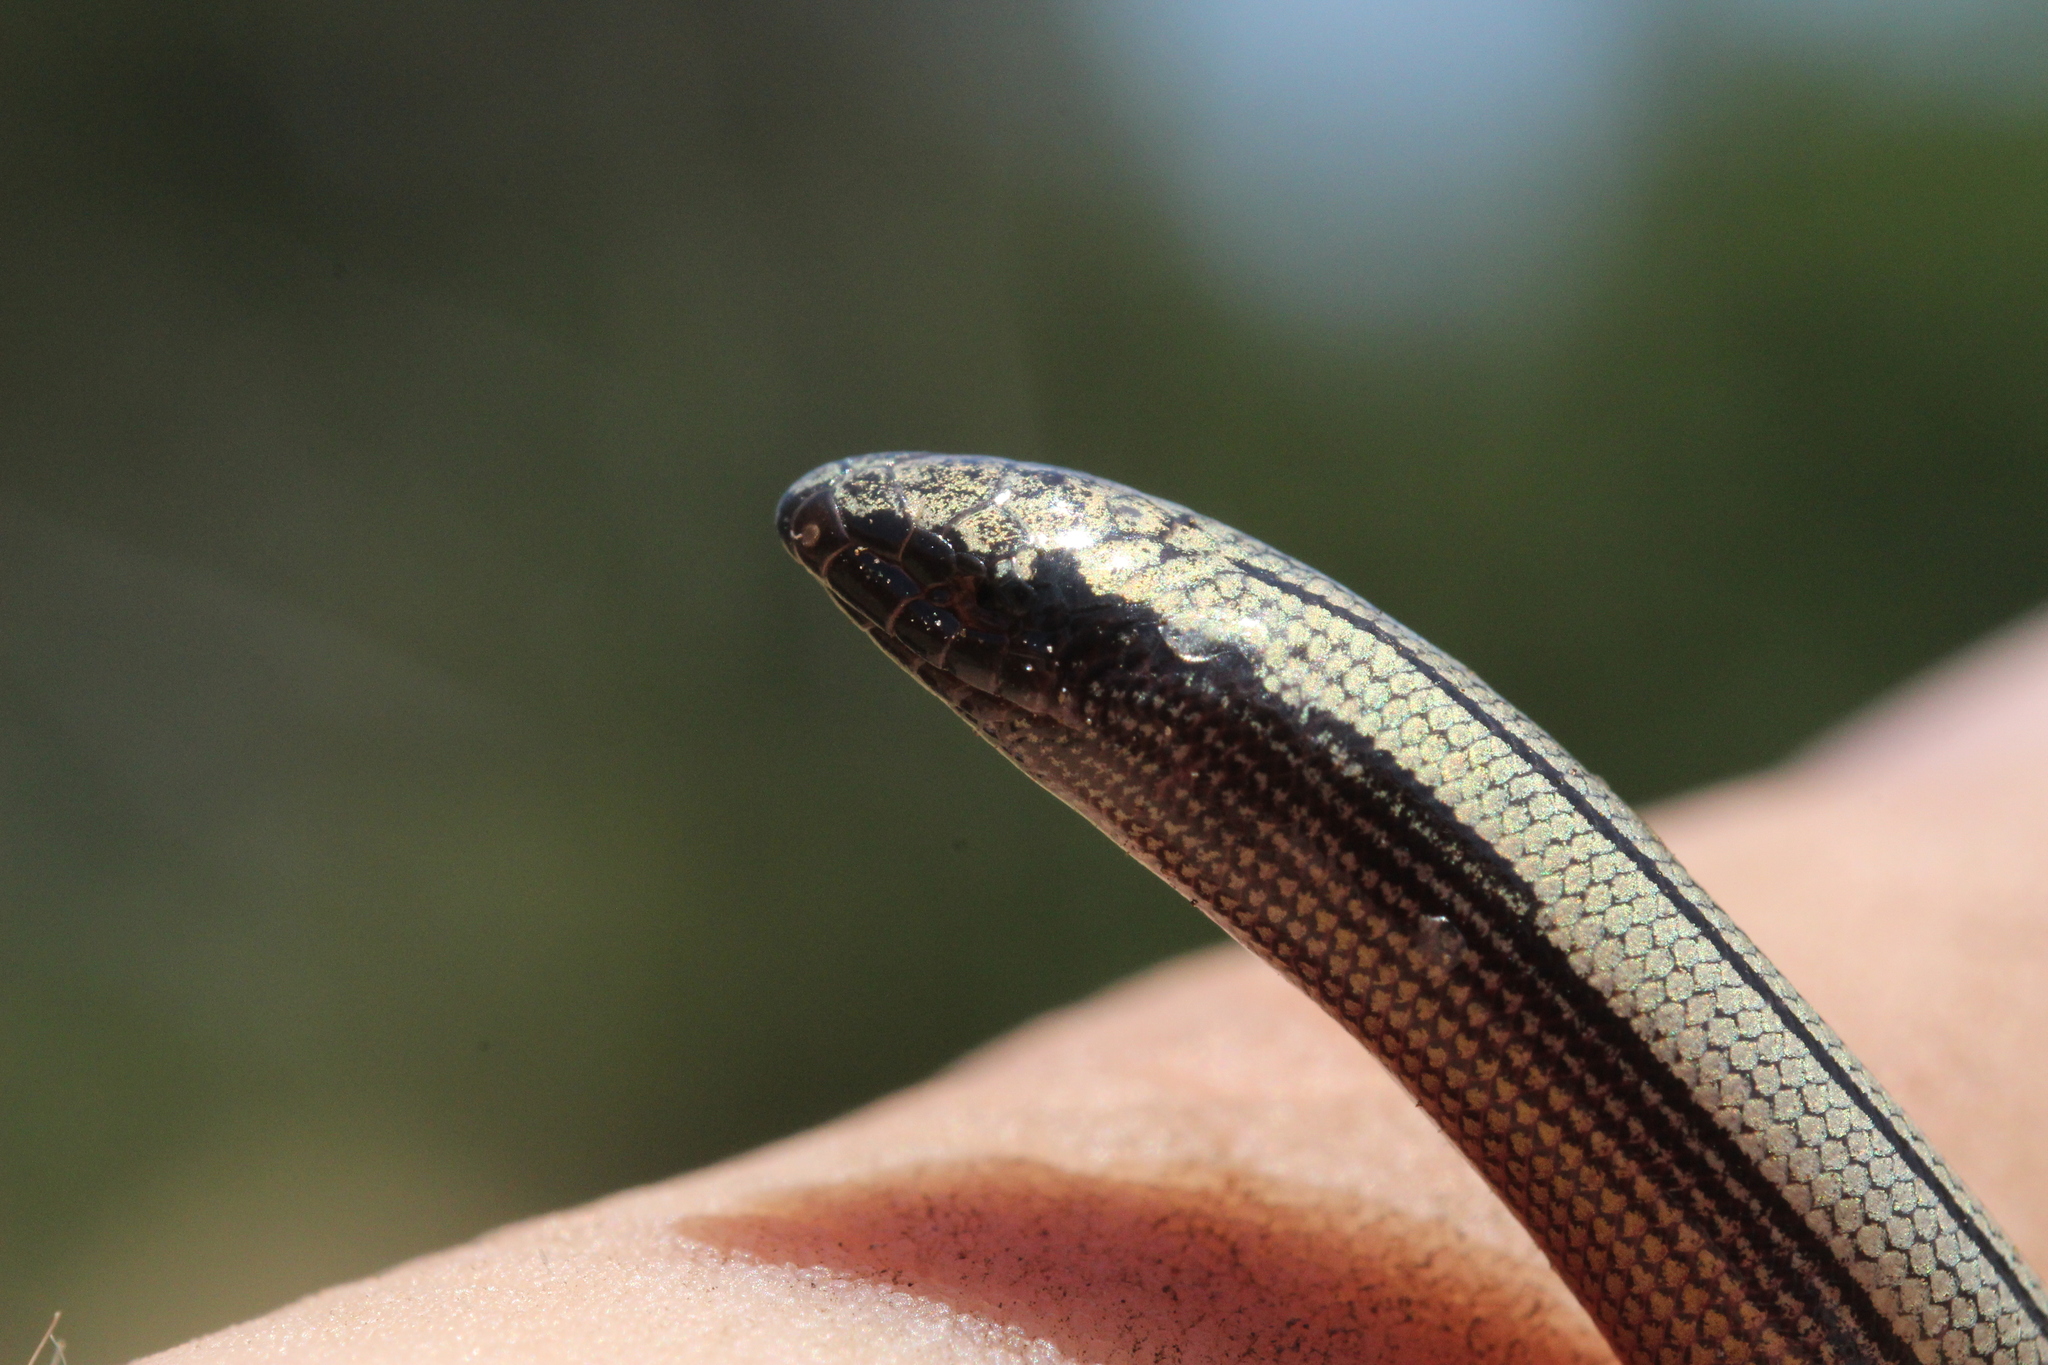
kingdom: Animalia
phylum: Chordata
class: Squamata
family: Anguidae
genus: Anniella
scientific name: Anniella pulchra
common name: California legless lizard
